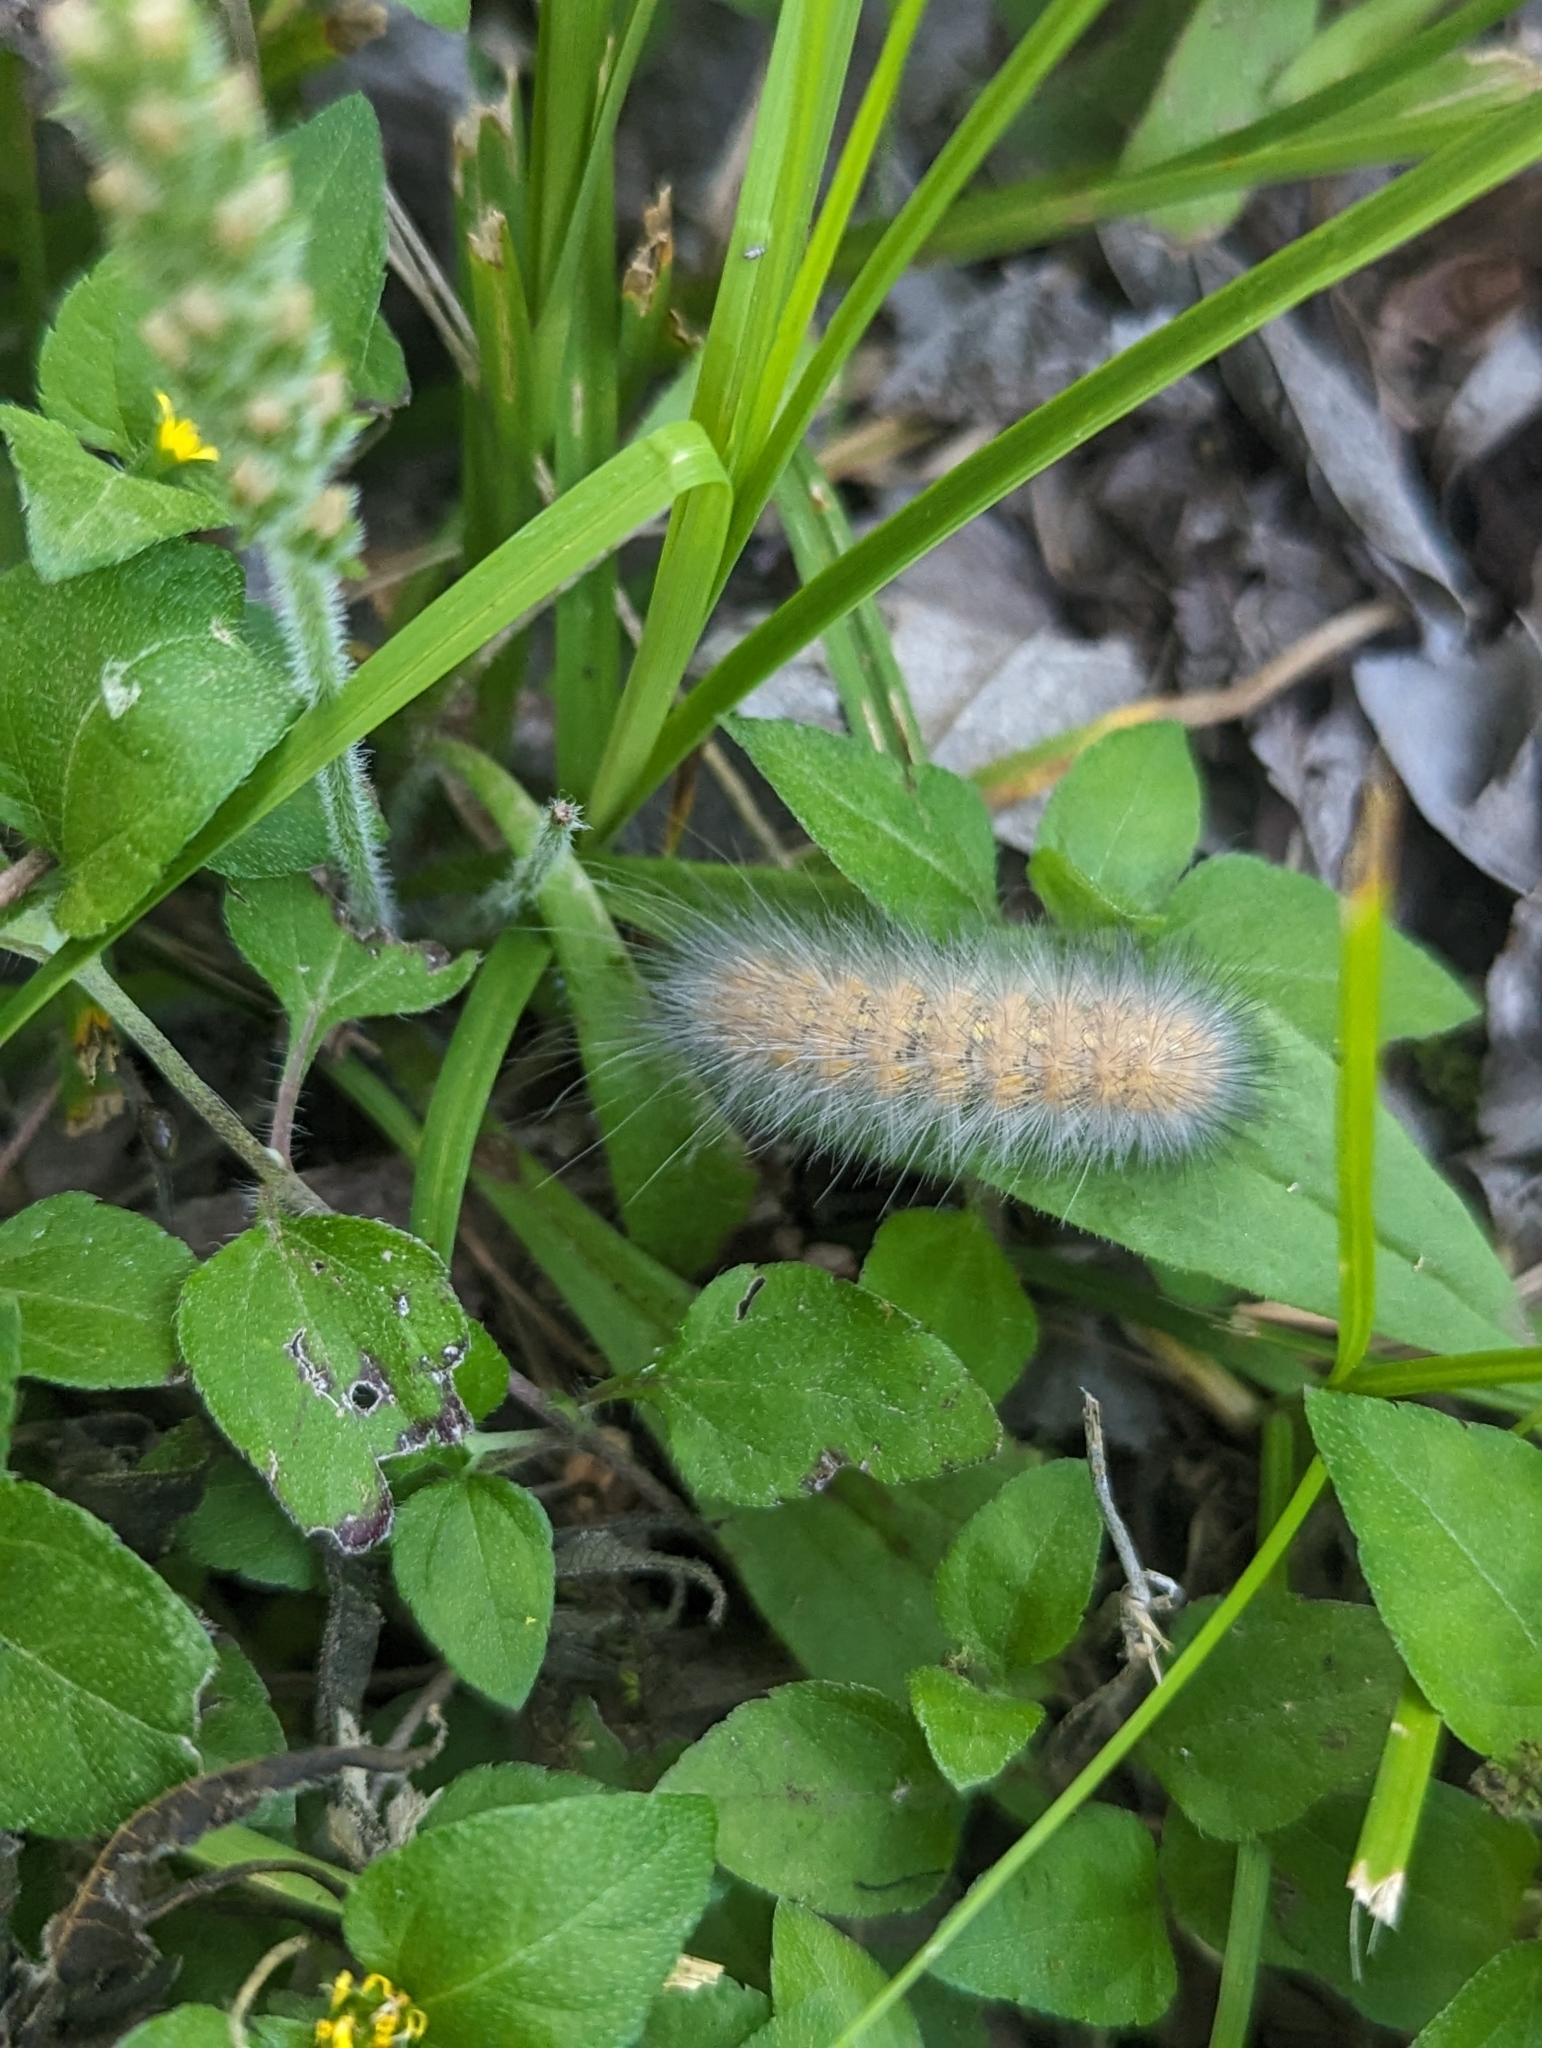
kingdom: Animalia
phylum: Arthropoda
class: Insecta
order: Lepidoptera
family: Erebidae
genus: Spilosoma
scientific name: Spilosoma virginica
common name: Virginia tiger moth
